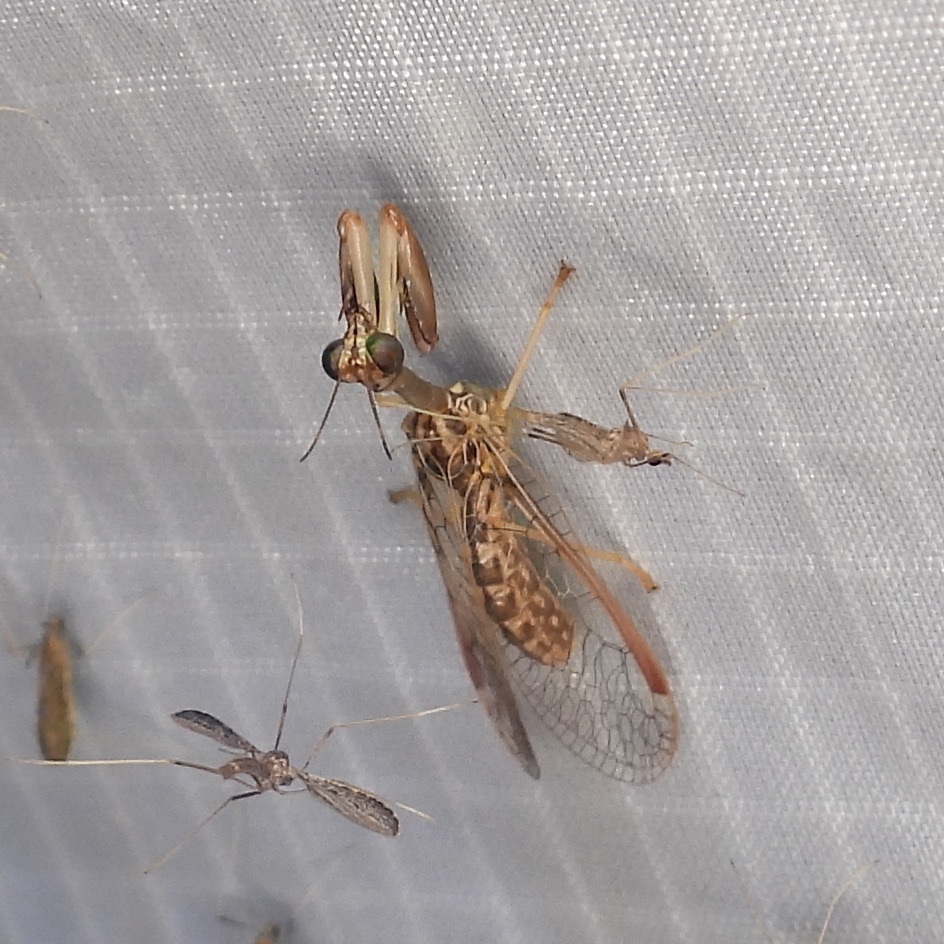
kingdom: Animalia
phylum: Arthropoda
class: Insecta
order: Neuroptera
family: Mantispidae
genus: Dicromantispa
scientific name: Dicromantispa sayi
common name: Say's mantidfly
